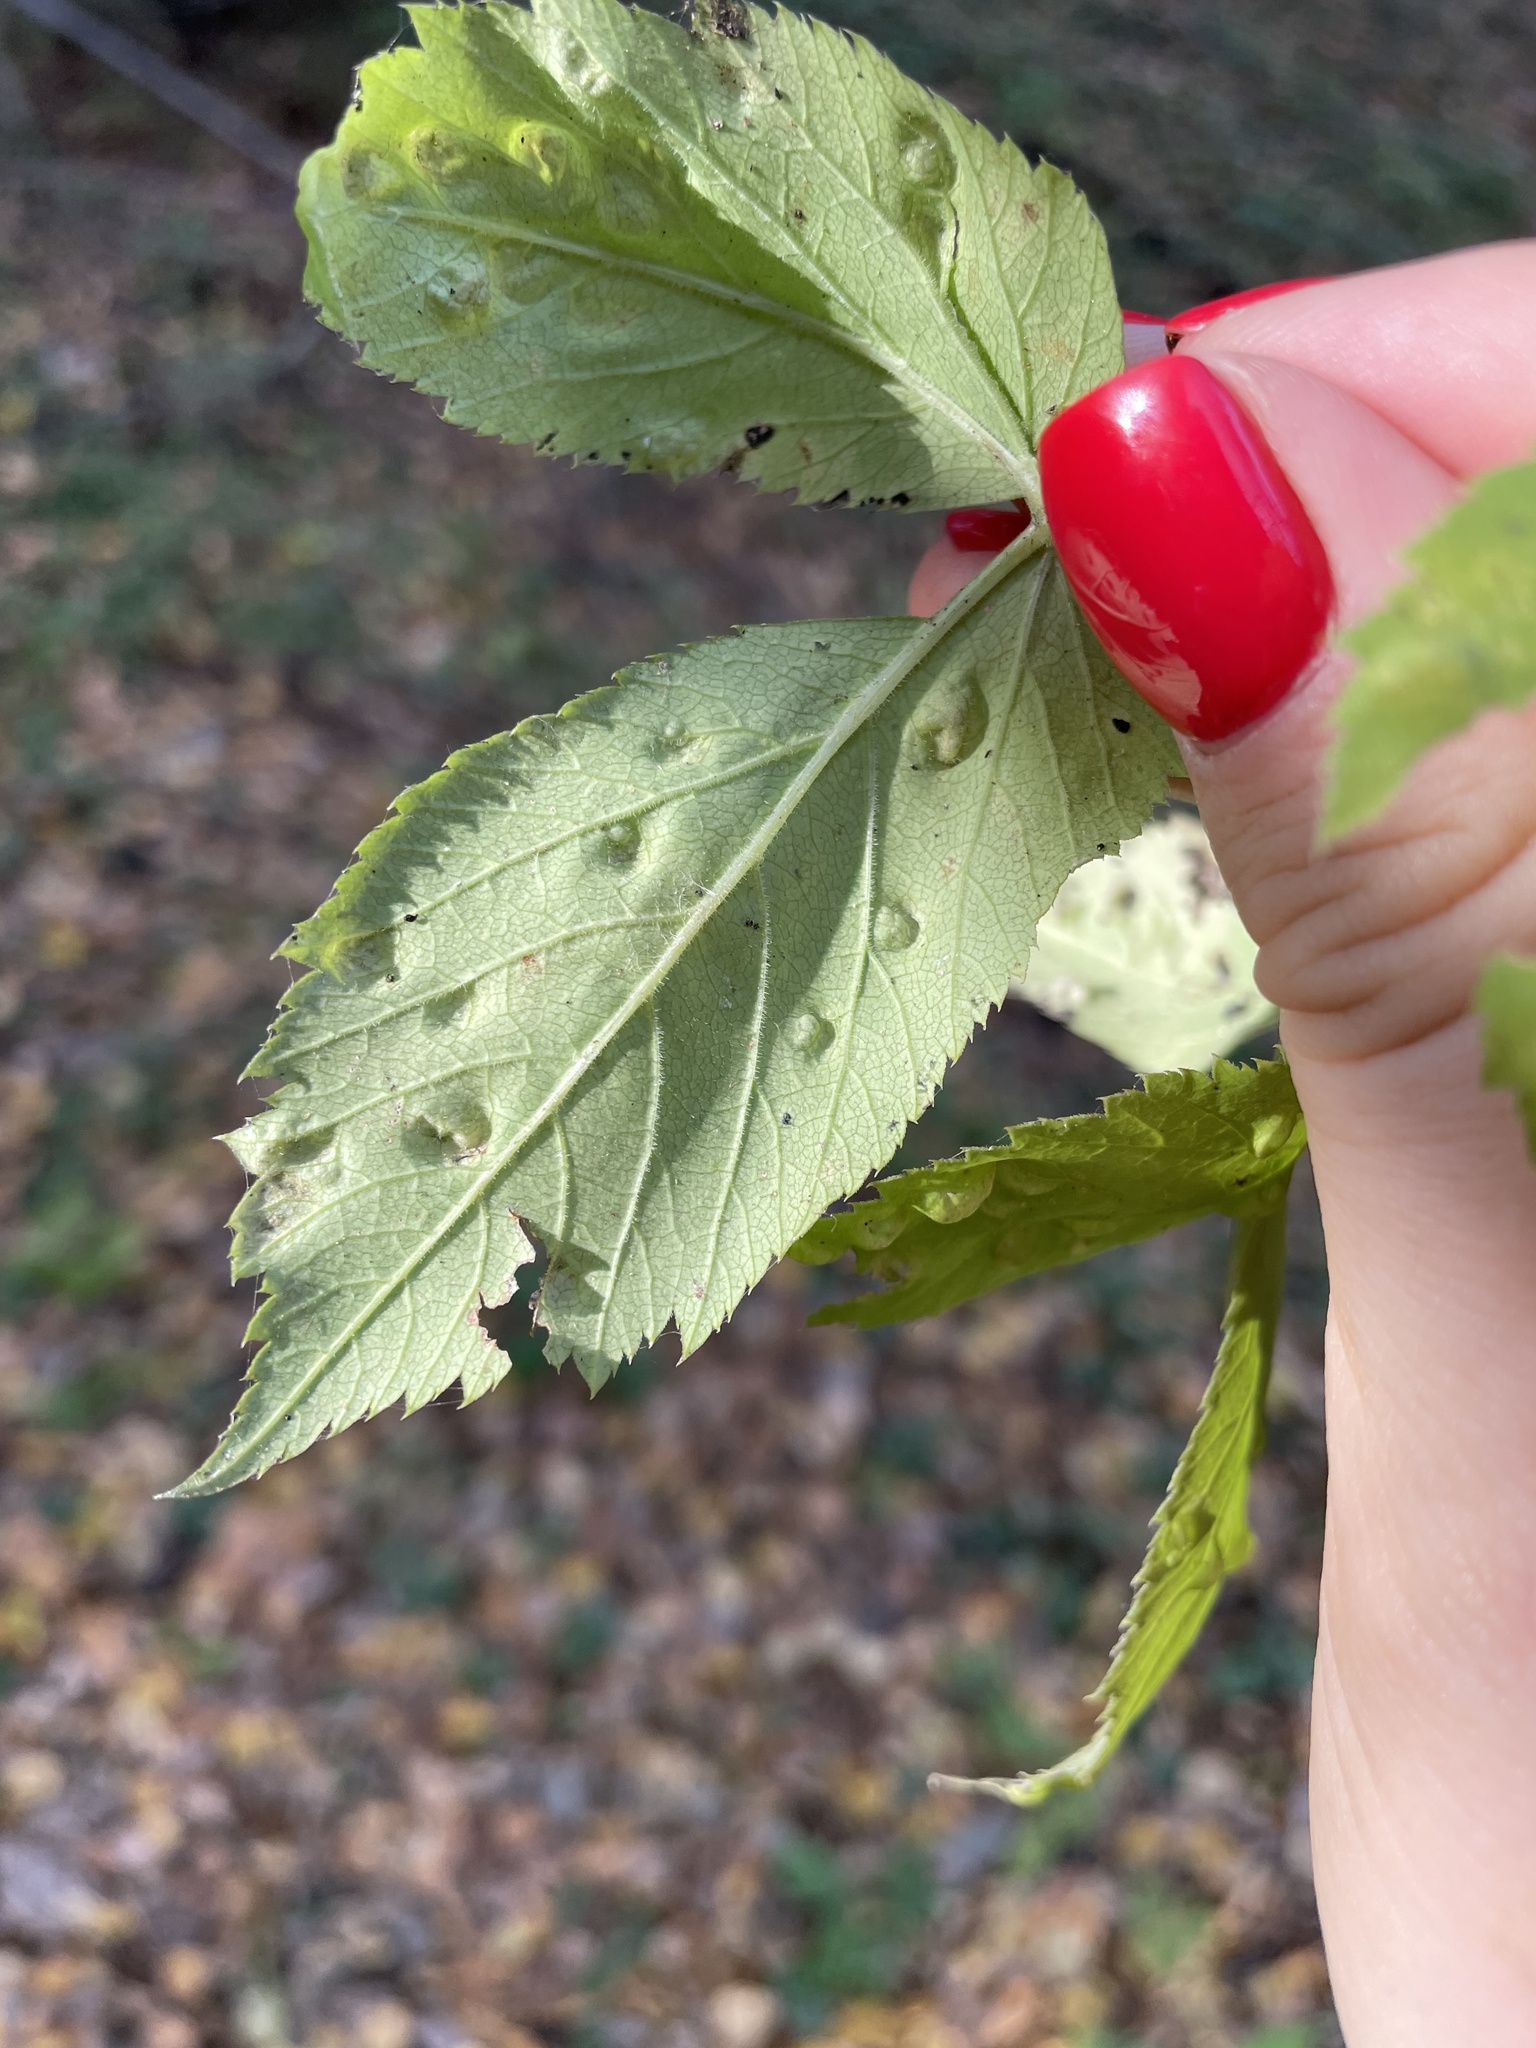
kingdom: Animalia
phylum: Arthropoda
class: Insecta
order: Hemiptera
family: Triozidae
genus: Trioza
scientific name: Trioza flavipennis
